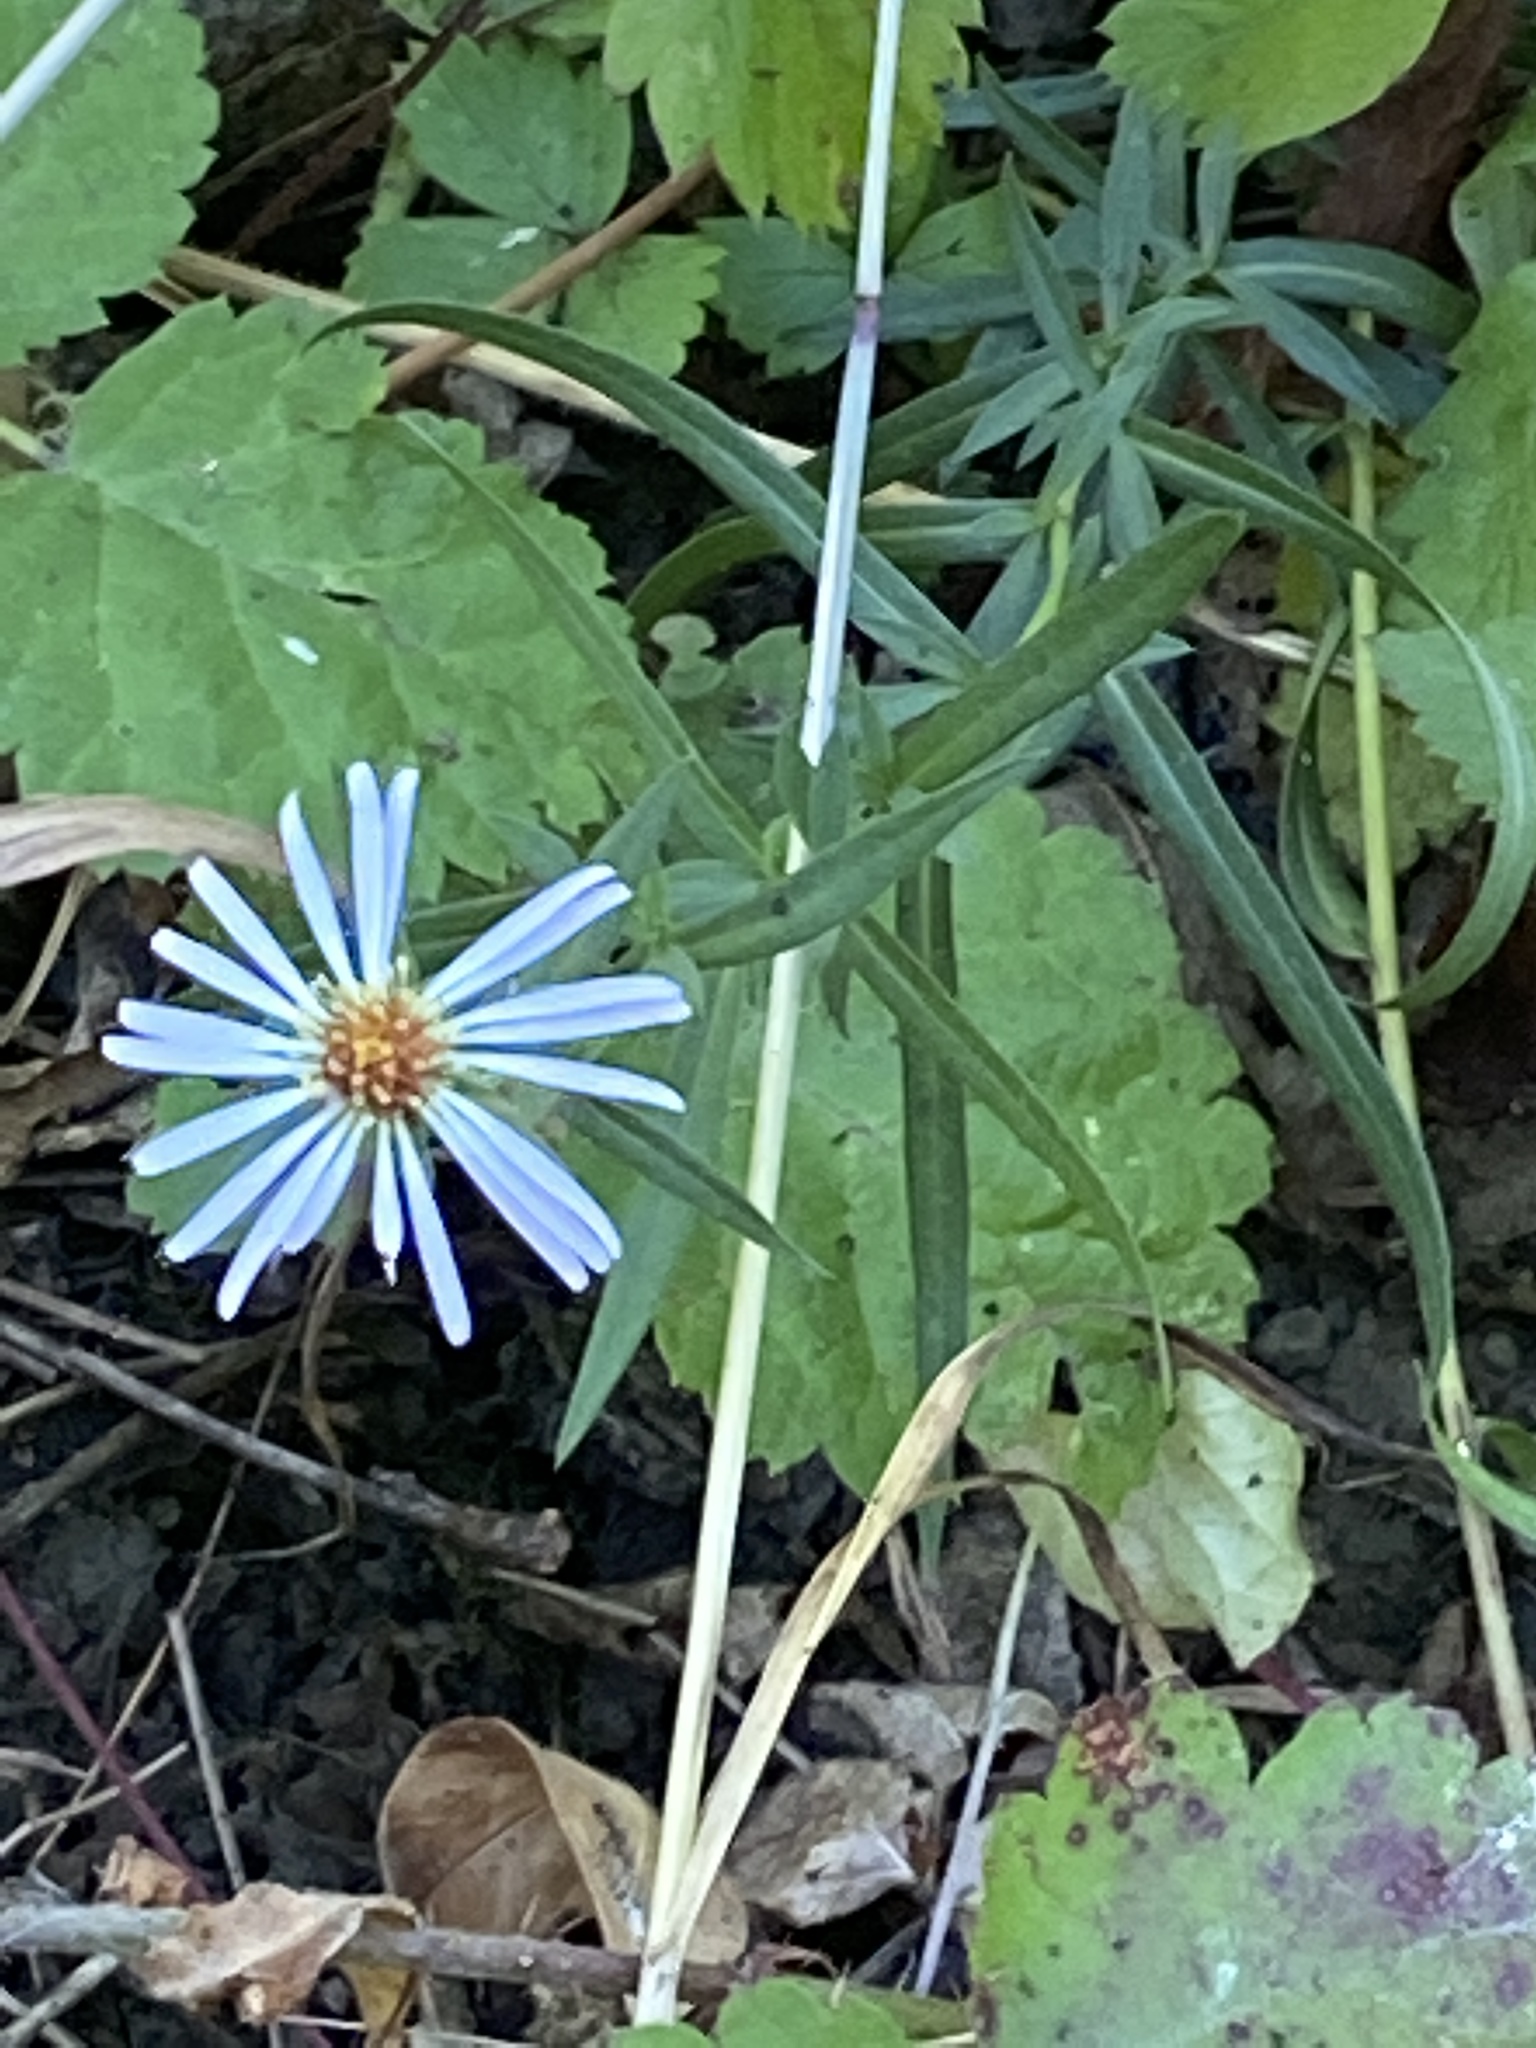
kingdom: Plantae
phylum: Tracheophyta
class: Magnoliopsida
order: Asterales
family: Asteraceae
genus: Symphyotrichum
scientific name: Symphyotrichum chilense
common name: Pacific aster
